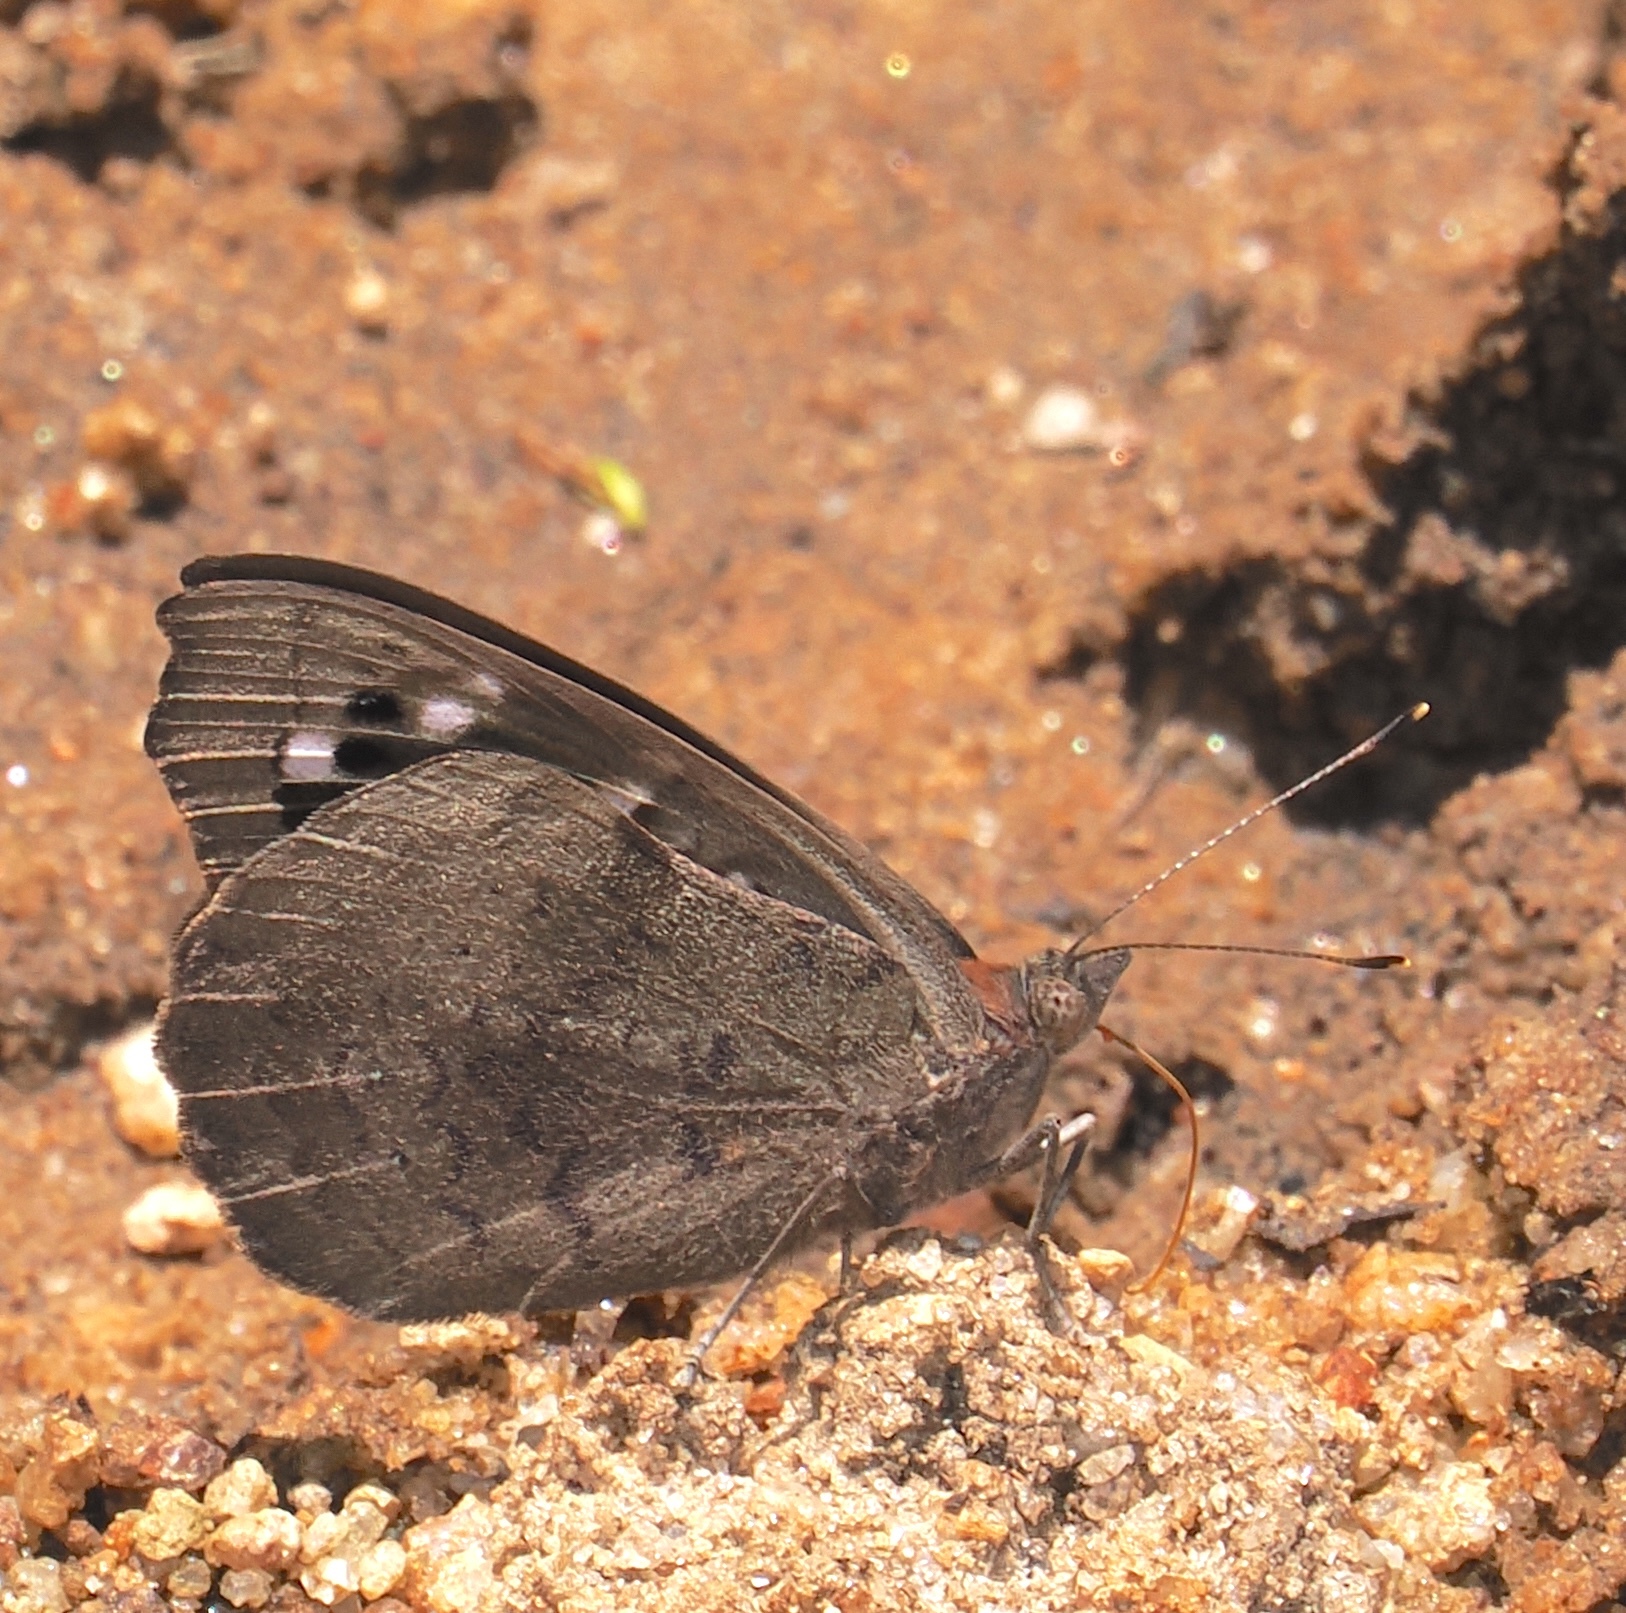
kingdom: Animalia
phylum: Arthropoda
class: Insecta
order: Lepidoptera
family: Nymphalidae
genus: Eunica
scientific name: Eunica tatila
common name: Florida purplewing
